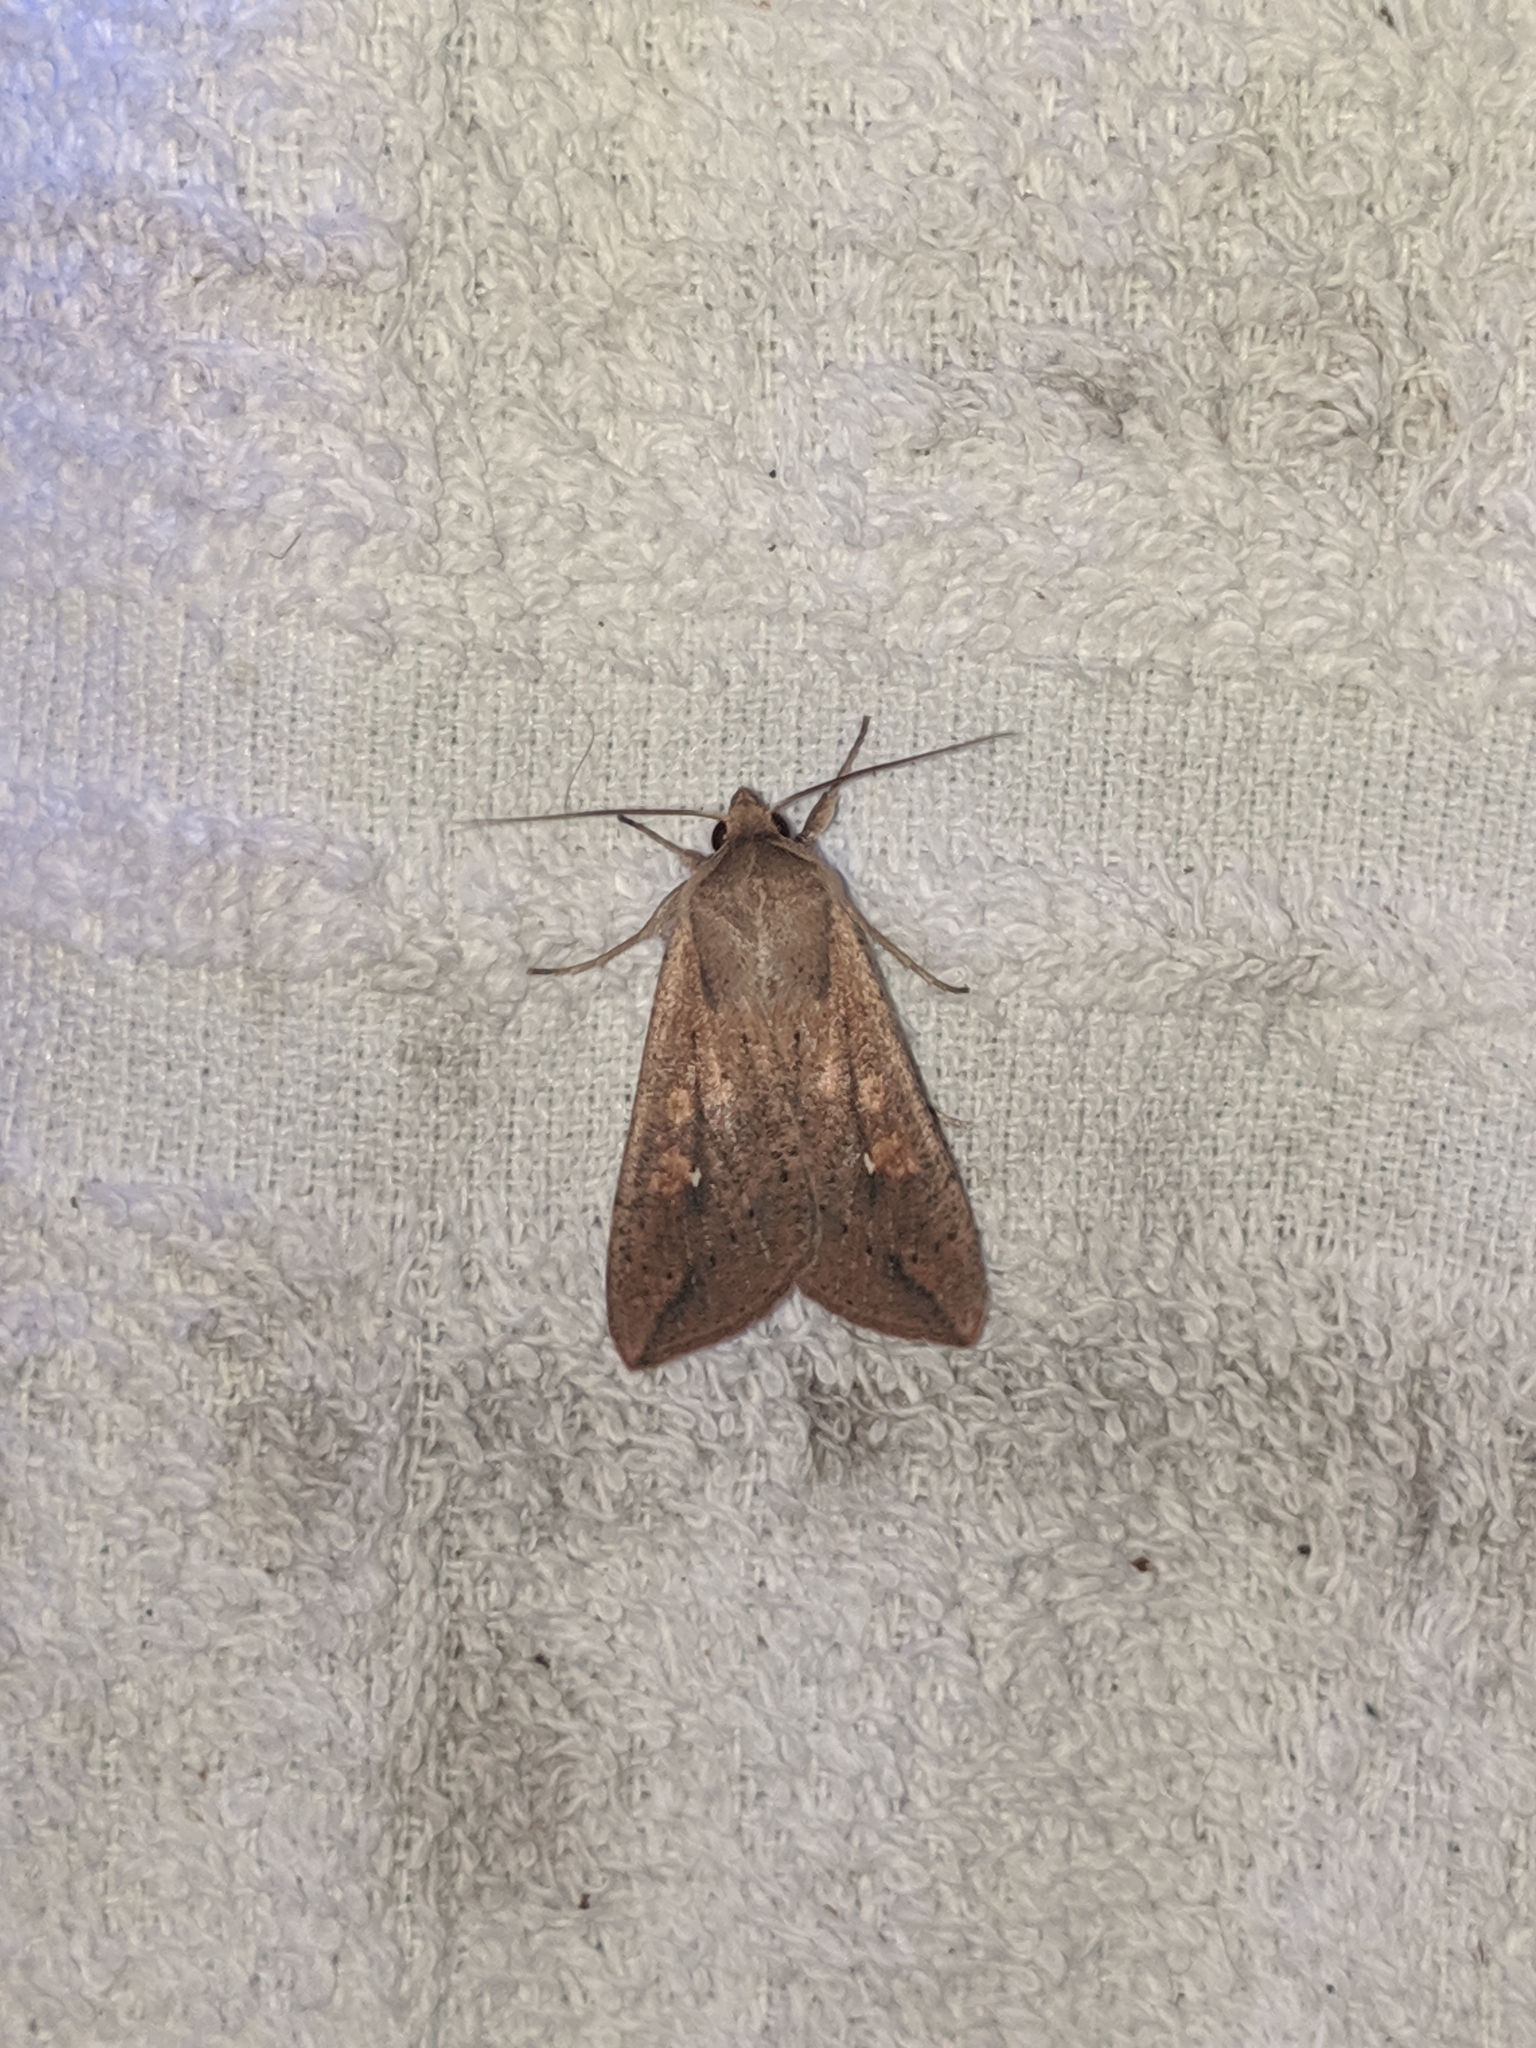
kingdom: Animalia
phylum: Arthropoda
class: Insecta
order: Lepidoptera
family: Noctuidae
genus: Mythimna
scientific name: Mythimna unipuncta
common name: White-speck
